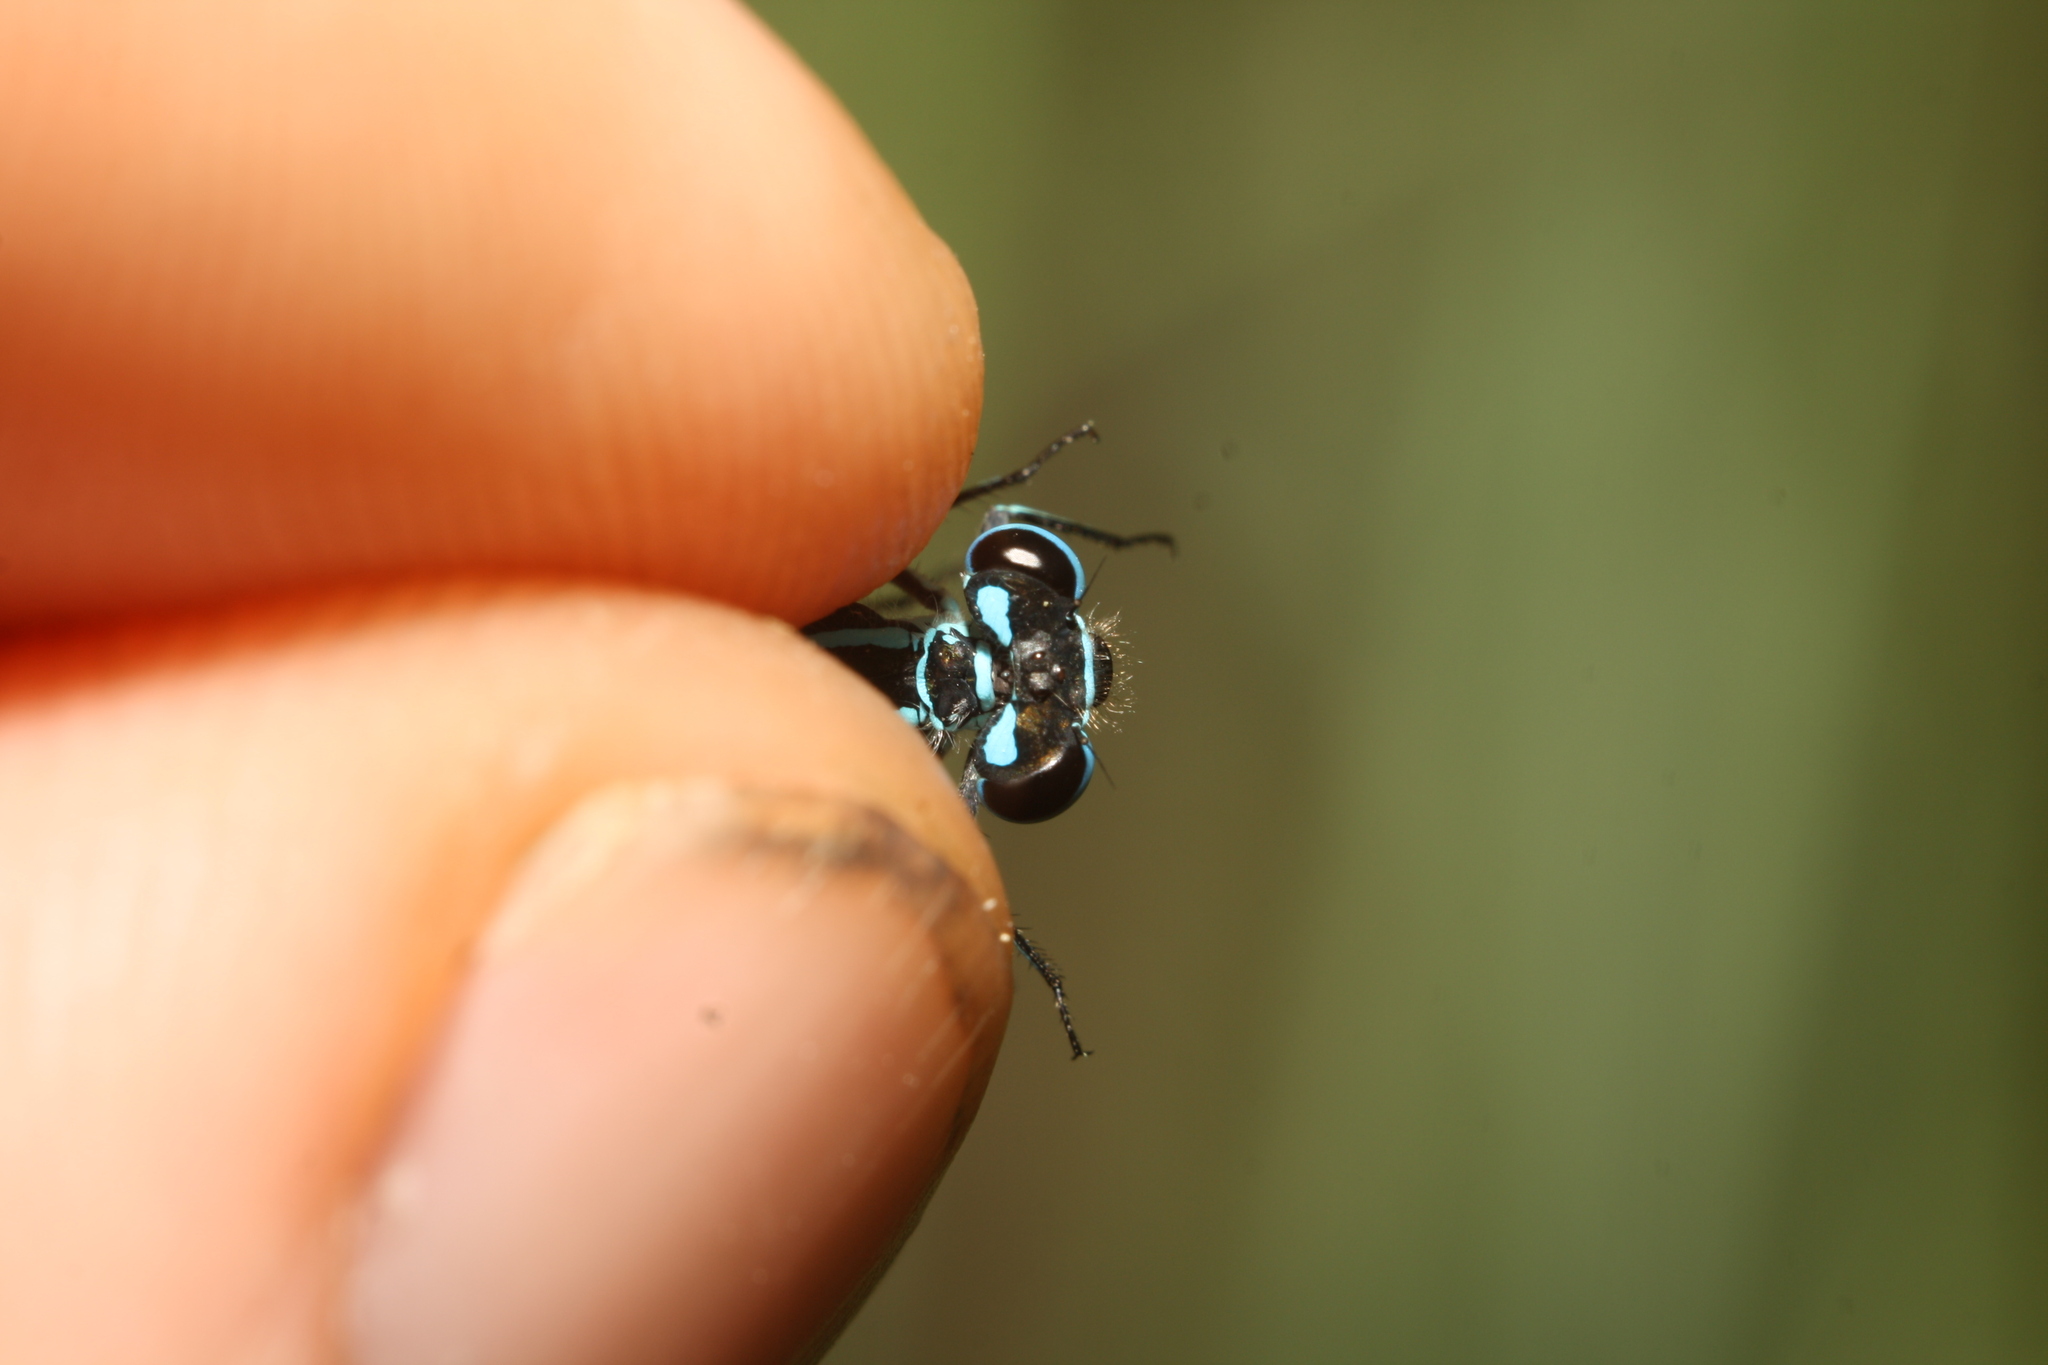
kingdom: Animalia
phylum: Arthropoda
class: Insecta
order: Odonata
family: Coenagrionidae
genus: Coenagrion
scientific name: Coenagrion puella
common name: Azure damselfly
